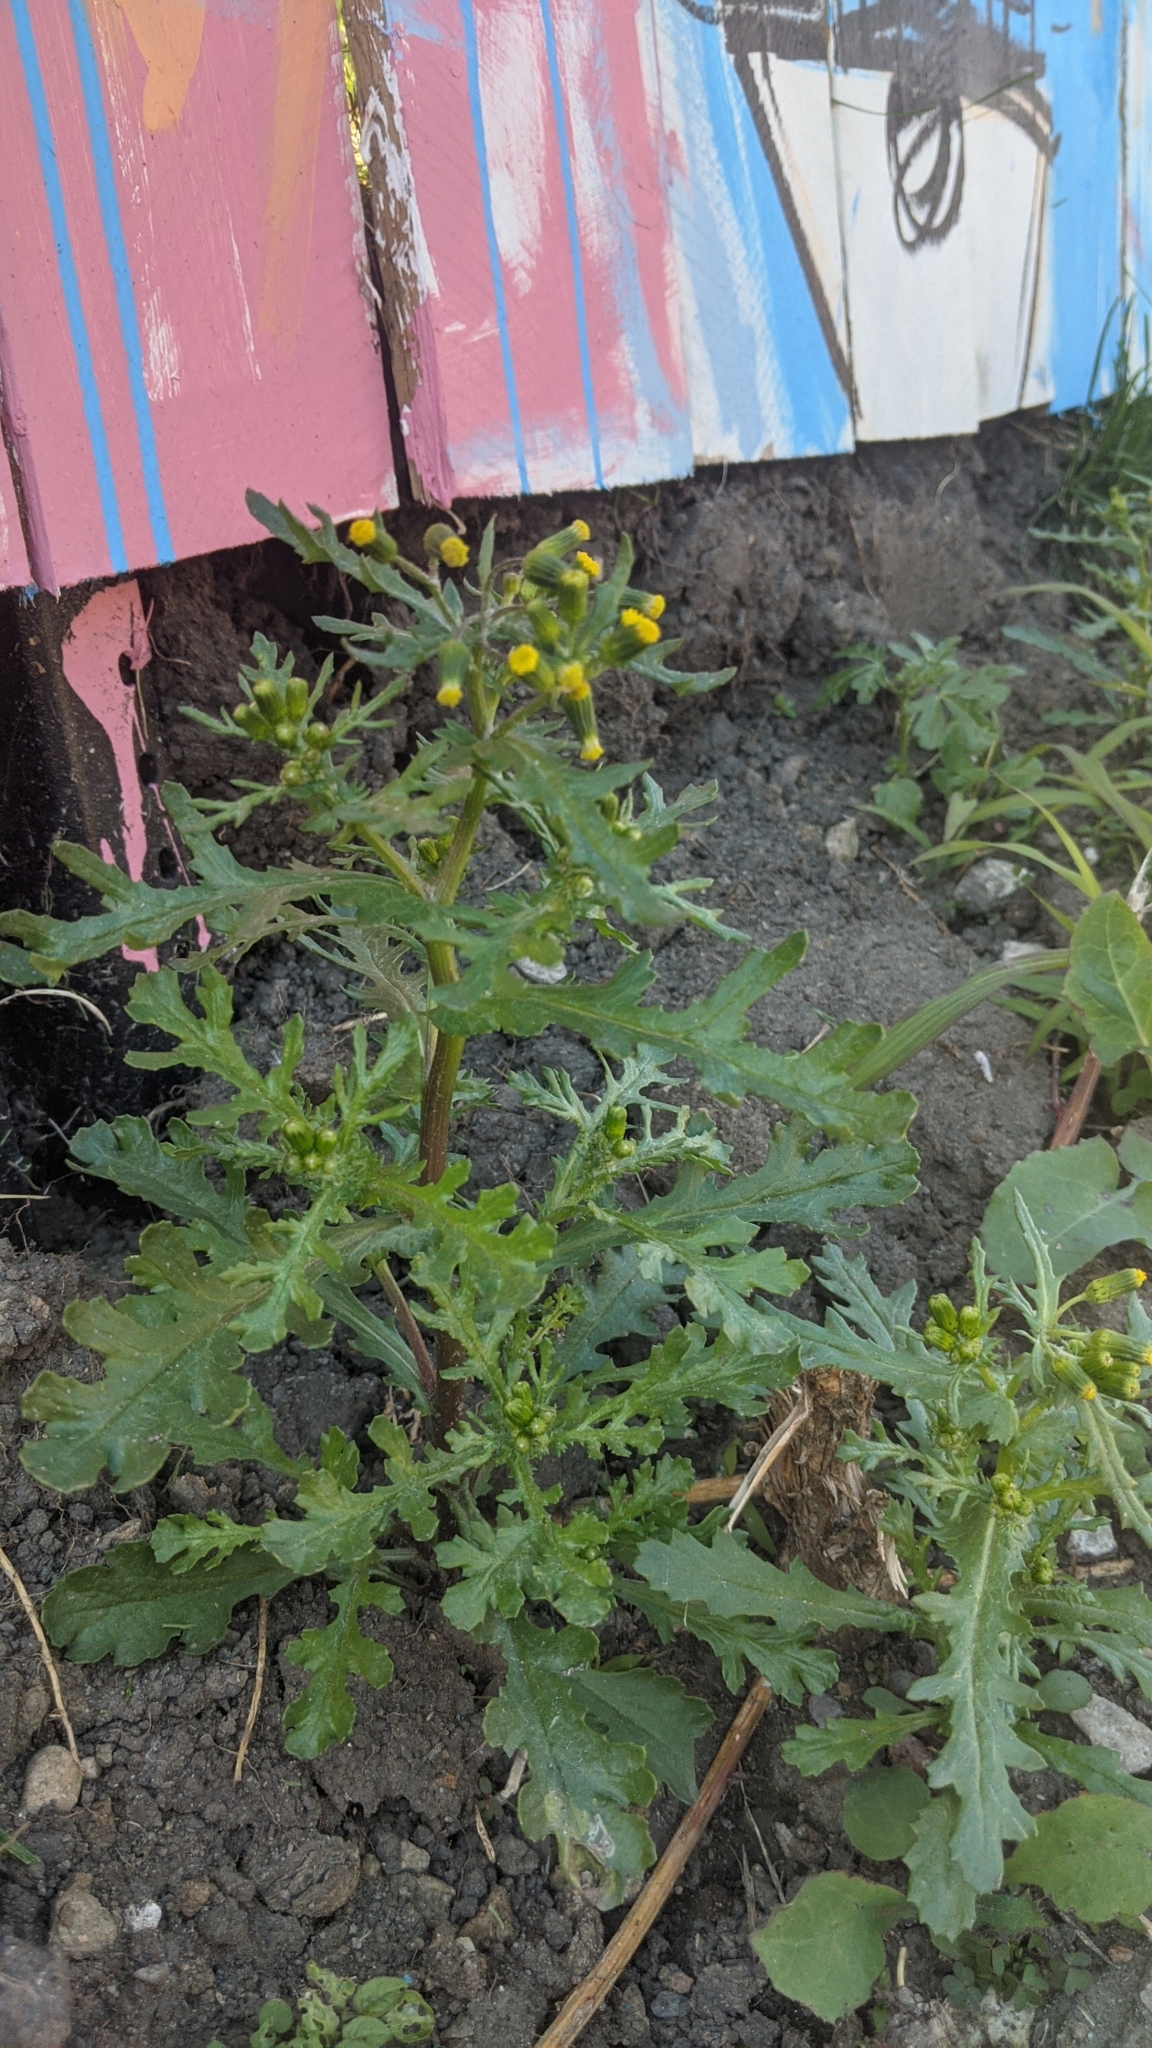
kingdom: Plantae
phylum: Tracheophyta
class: Magnoliopsida
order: Asterales
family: Asteraceae
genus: Senecio
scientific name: Senecio vulgaris
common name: Old-man-in-the-spring
